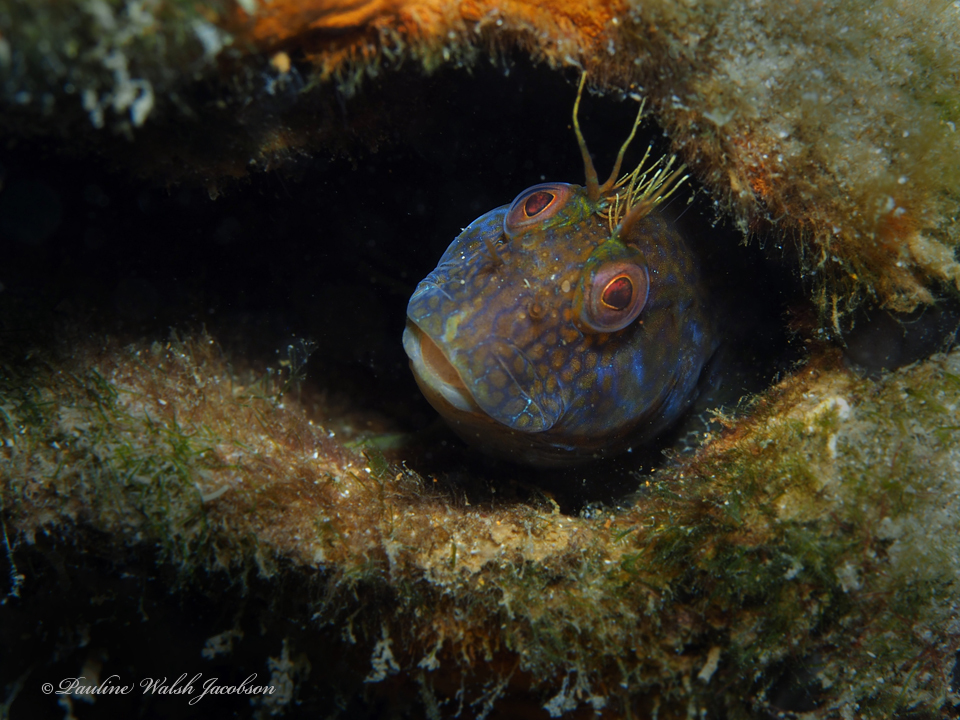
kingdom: Animalia
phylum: Chordata
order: Perciformes
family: Blenniidae
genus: Parablennius
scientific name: Parablennius marmoreus
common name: Seaweed blenny
